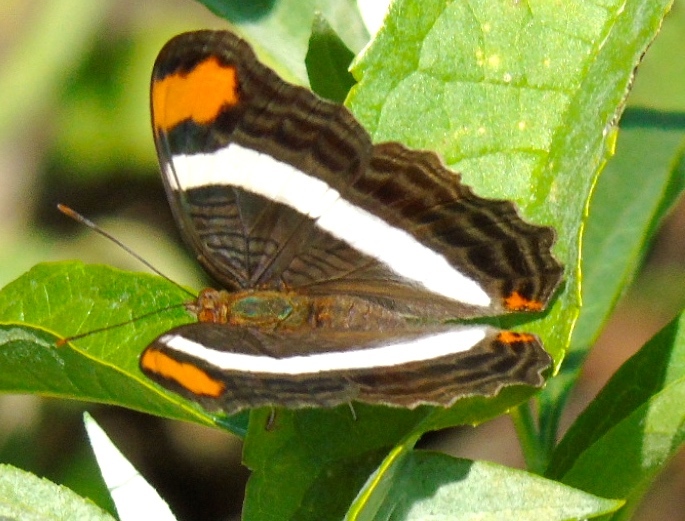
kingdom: Animalia
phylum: Arthropoda
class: Insecta
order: Lepidoptera
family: Nymphalidae
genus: Limenitis
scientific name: Limenitis fessonia
